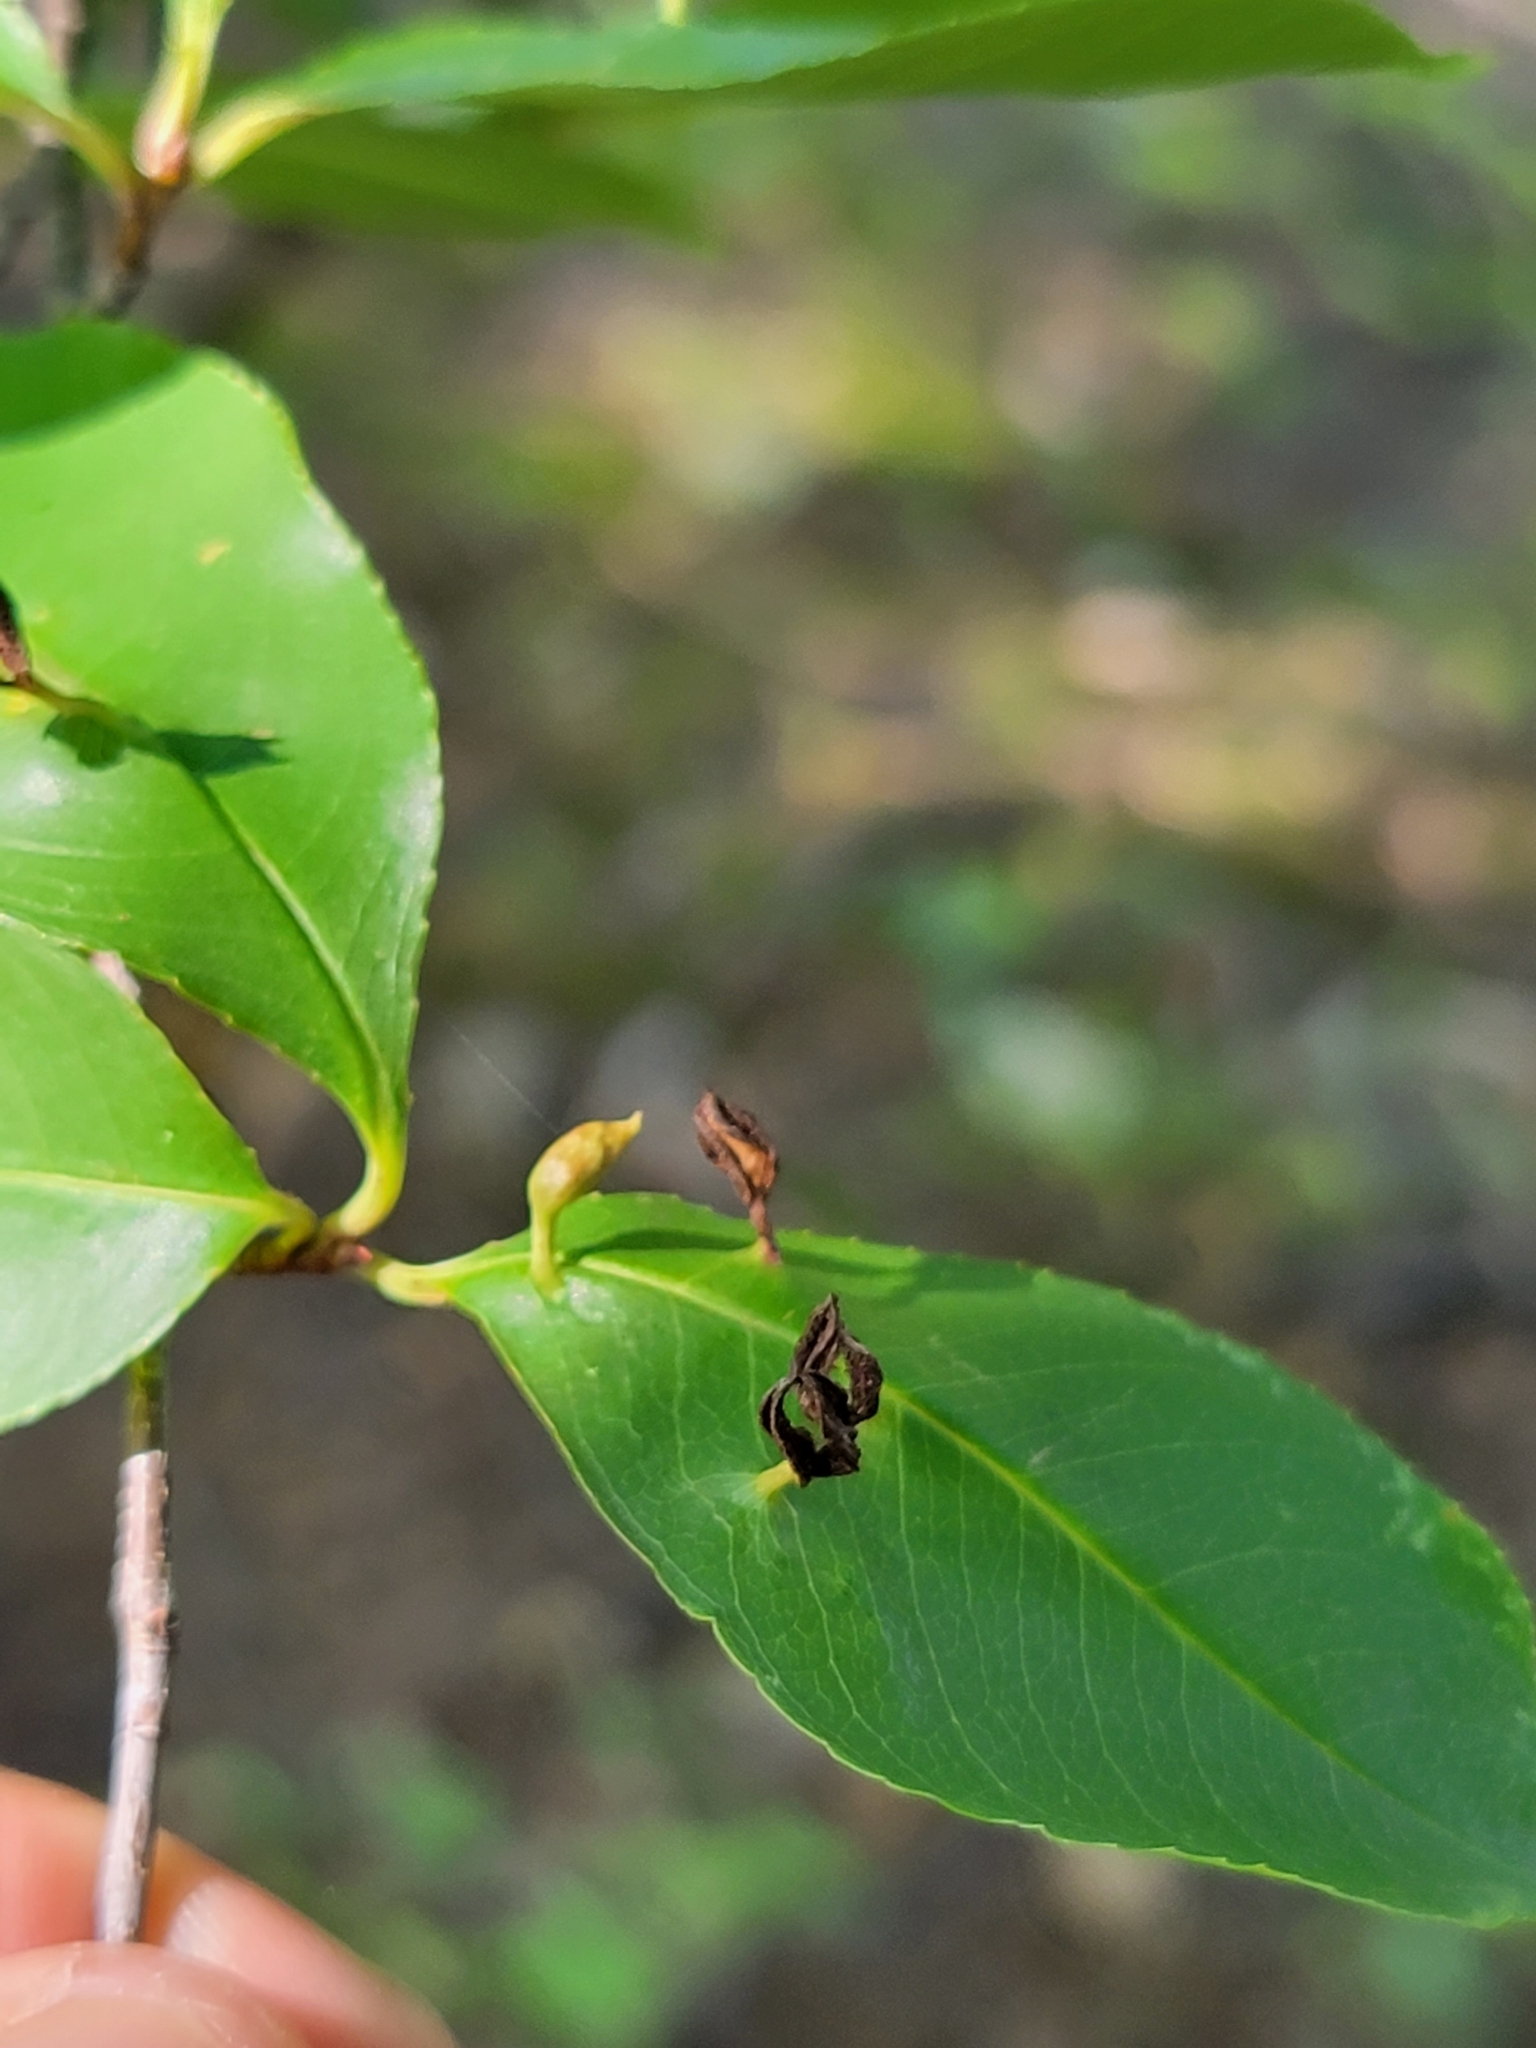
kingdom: Animalia
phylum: Arthropoda
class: Arachnida
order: Trombidiformes
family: Eriophyidae
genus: Eriophyes
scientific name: Eriophyes
